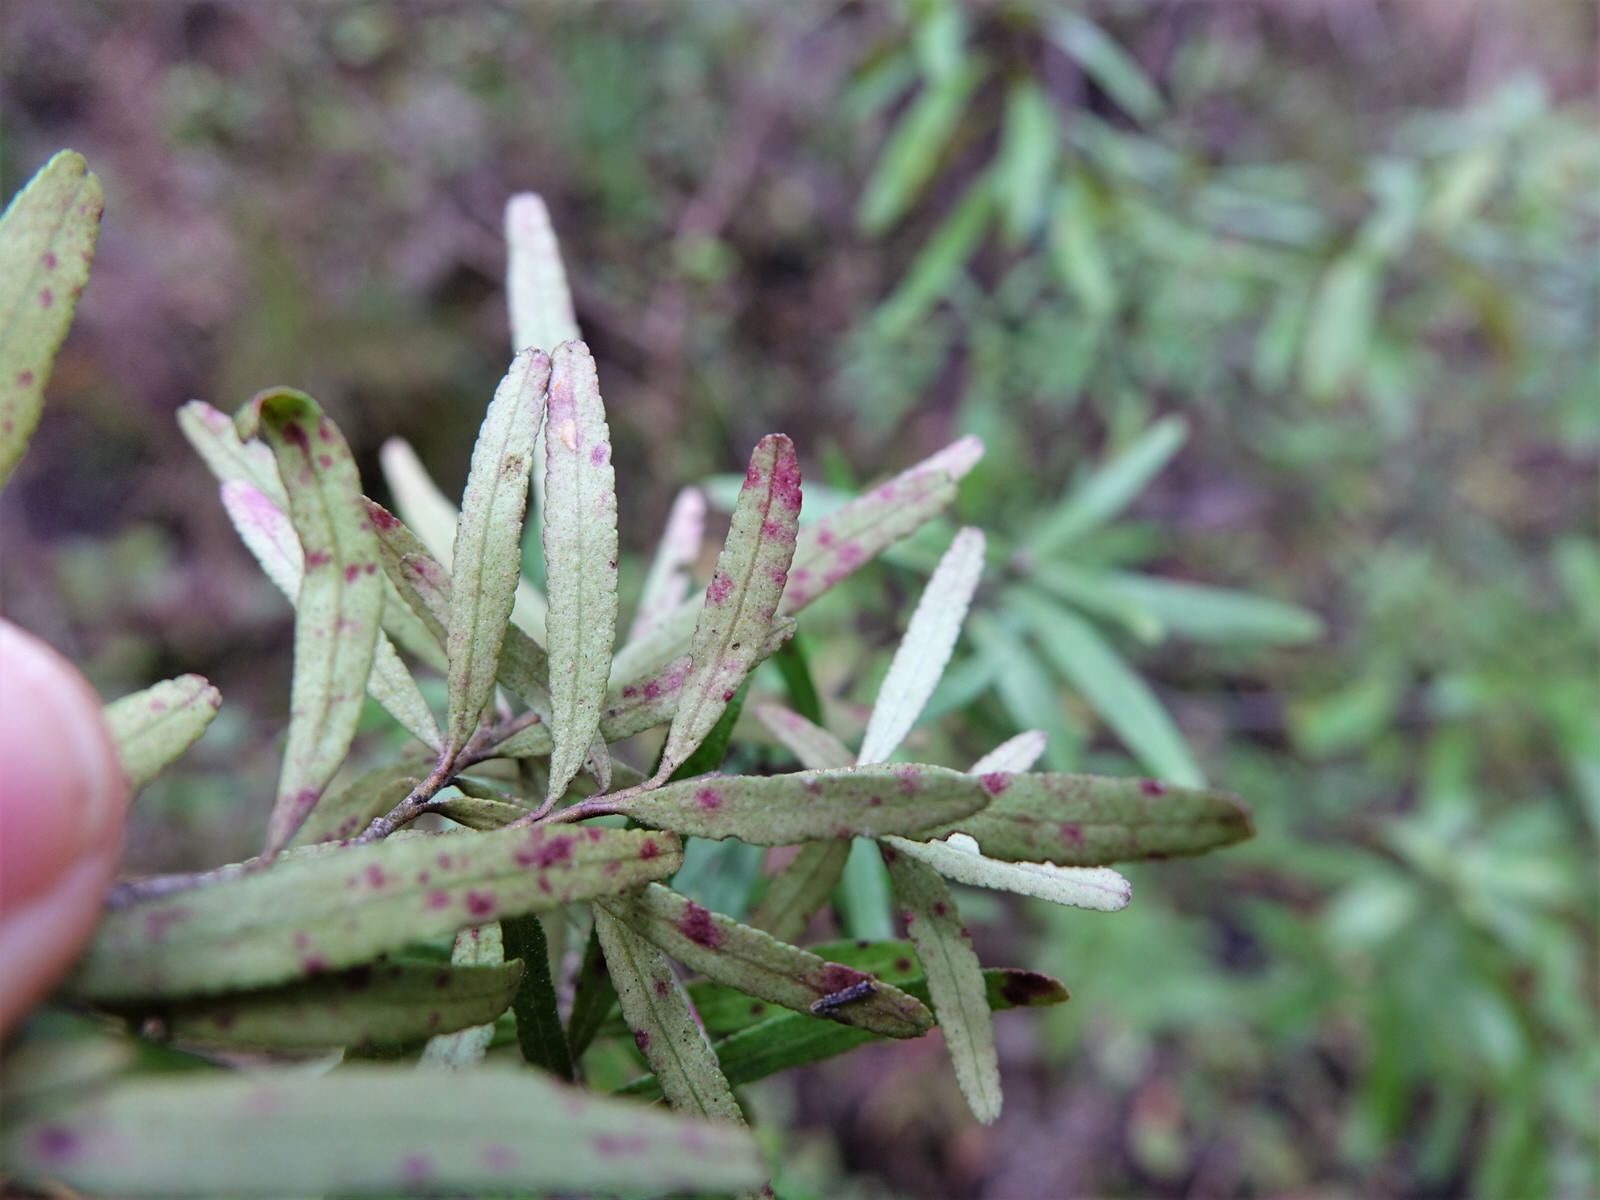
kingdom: Plantae
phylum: Tracheophyta
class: Magnoliopsida
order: Sapindales
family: Rutaceae
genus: Leionema
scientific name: Leionema nudum
